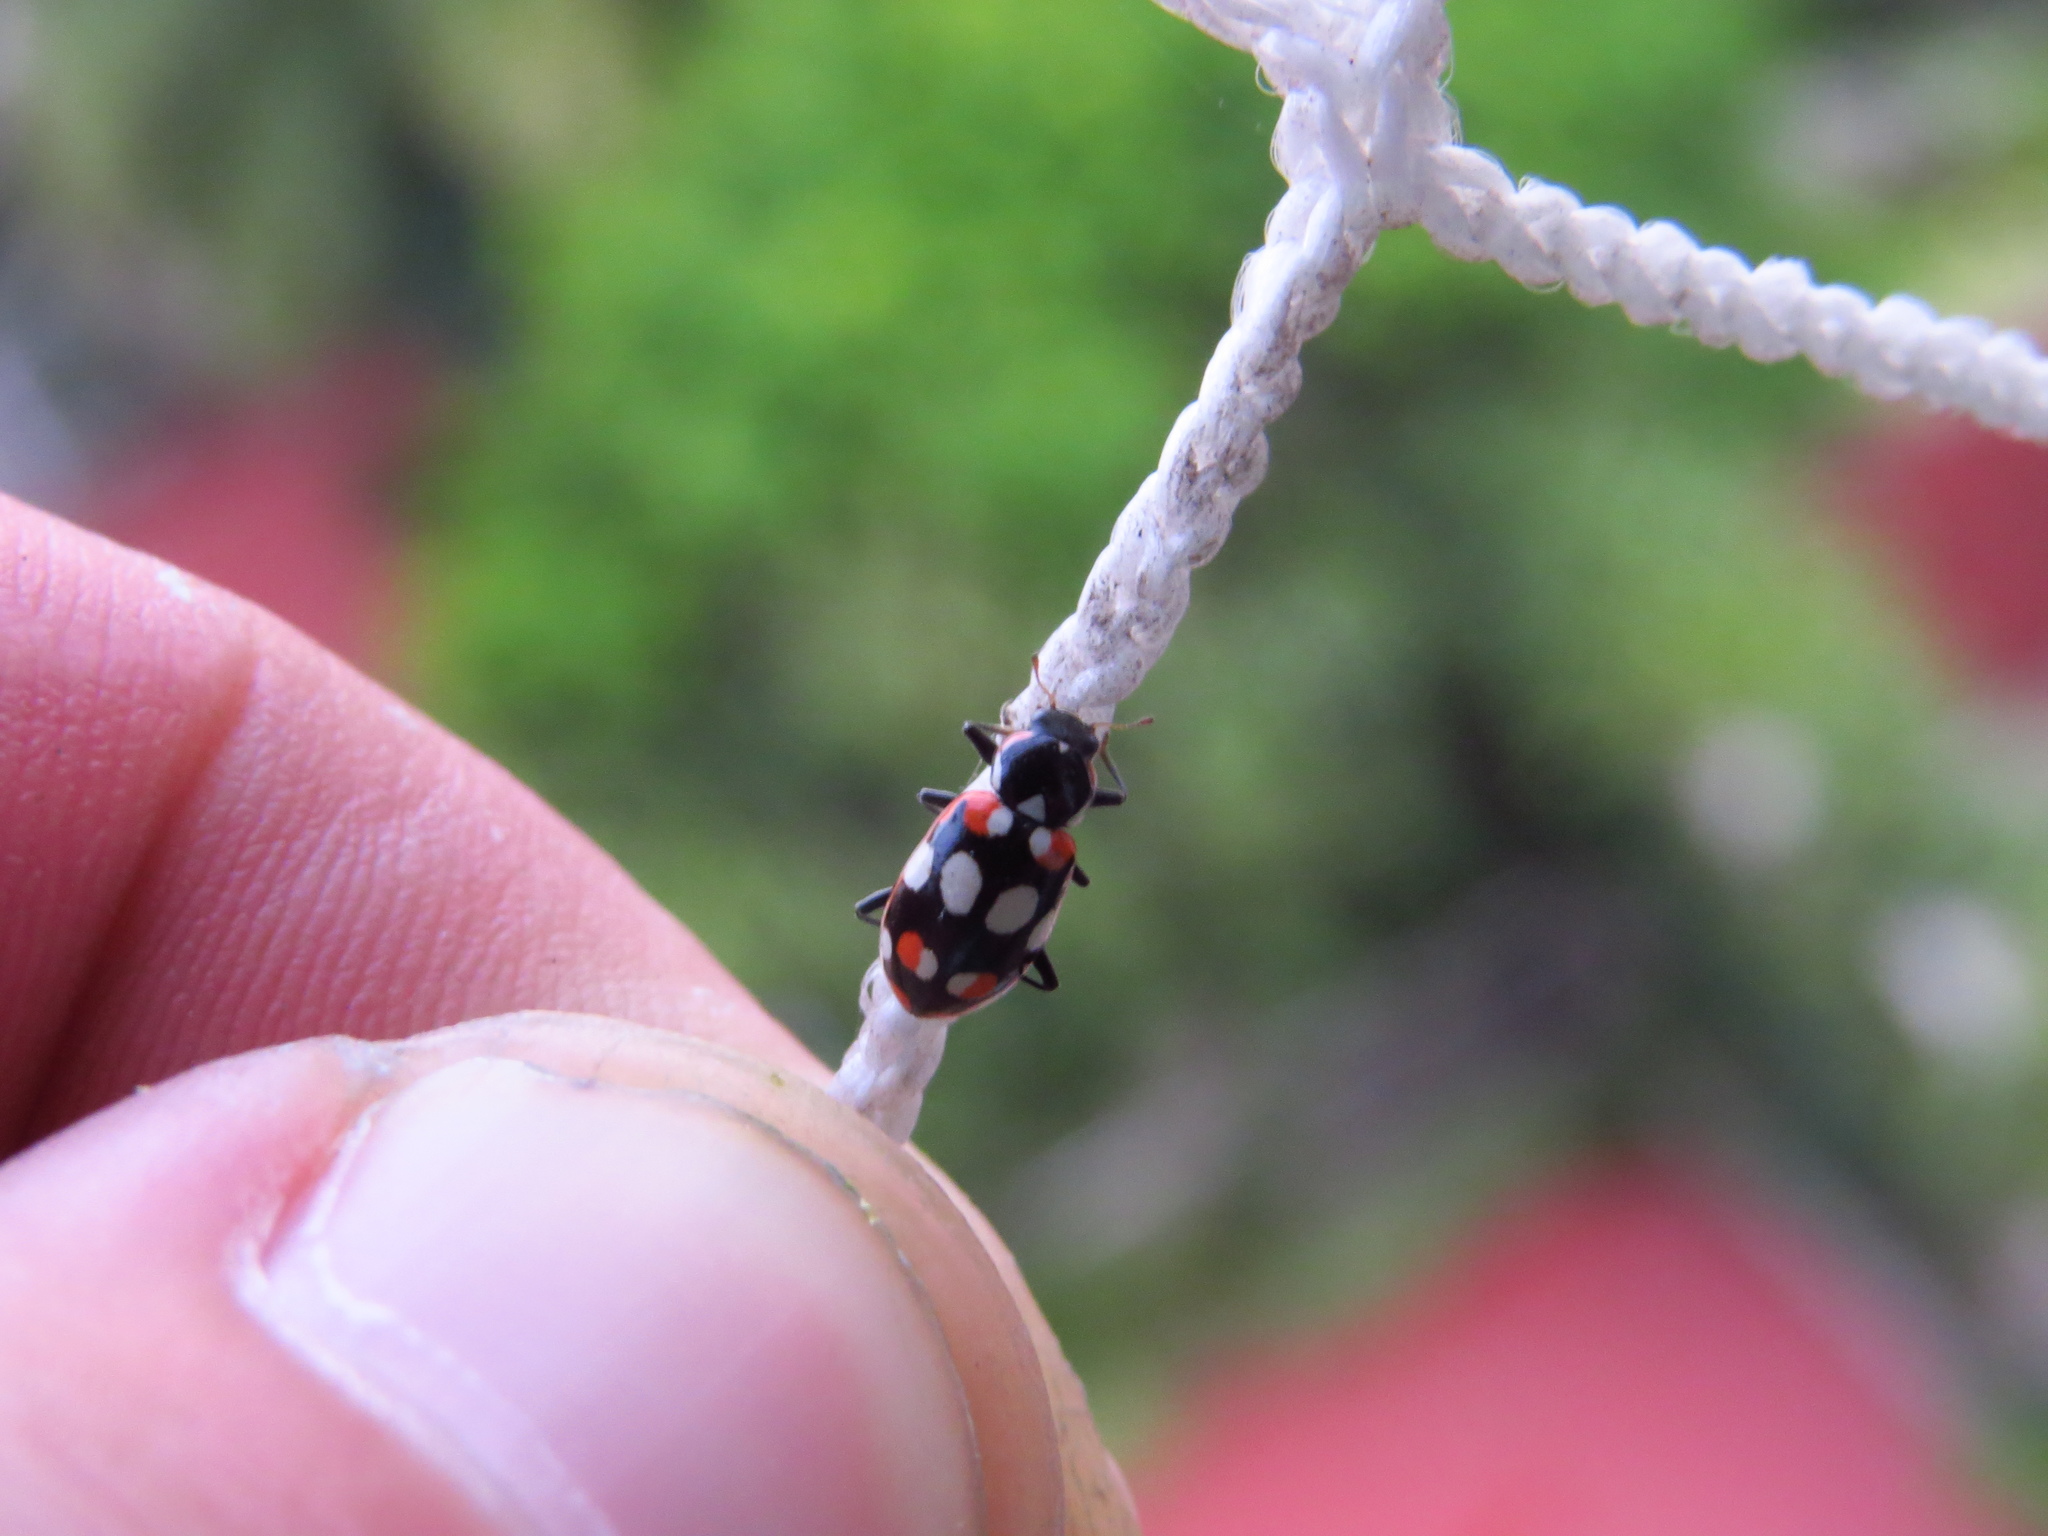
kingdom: Animalia
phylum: Arthropoda
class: Insecta
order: Coleoptera
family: Coccinellidae
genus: Eriopis
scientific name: Eriopis connexa
